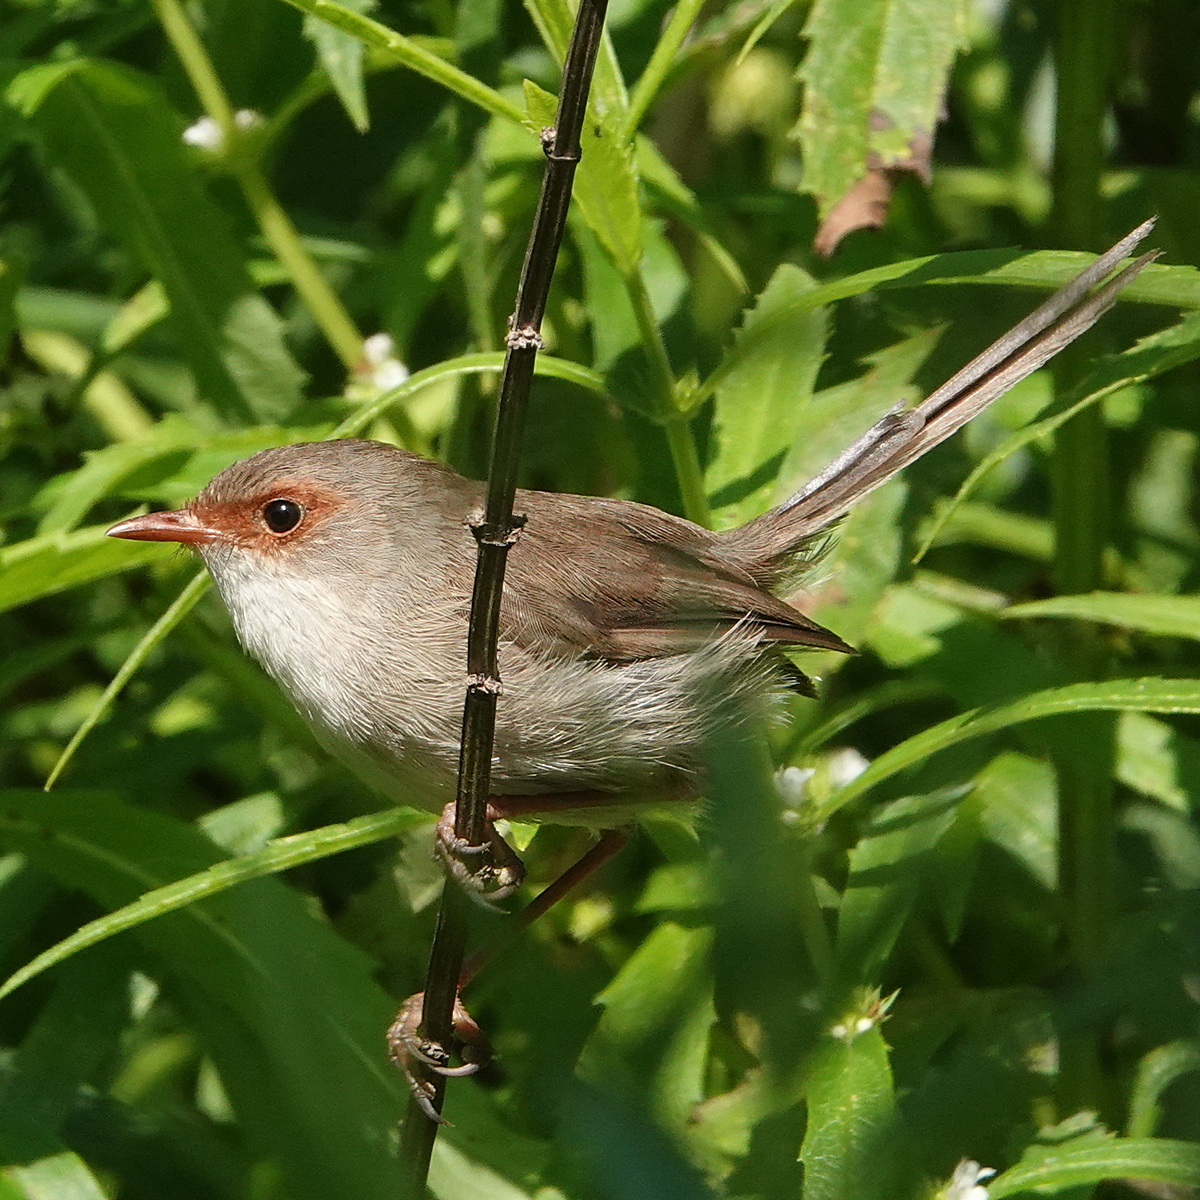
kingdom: Animalia
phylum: Chordata
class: Aves
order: Passeriformes
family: Maluridae
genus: Malurus
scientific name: Malurus cyaneus
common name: Superb fairywren
